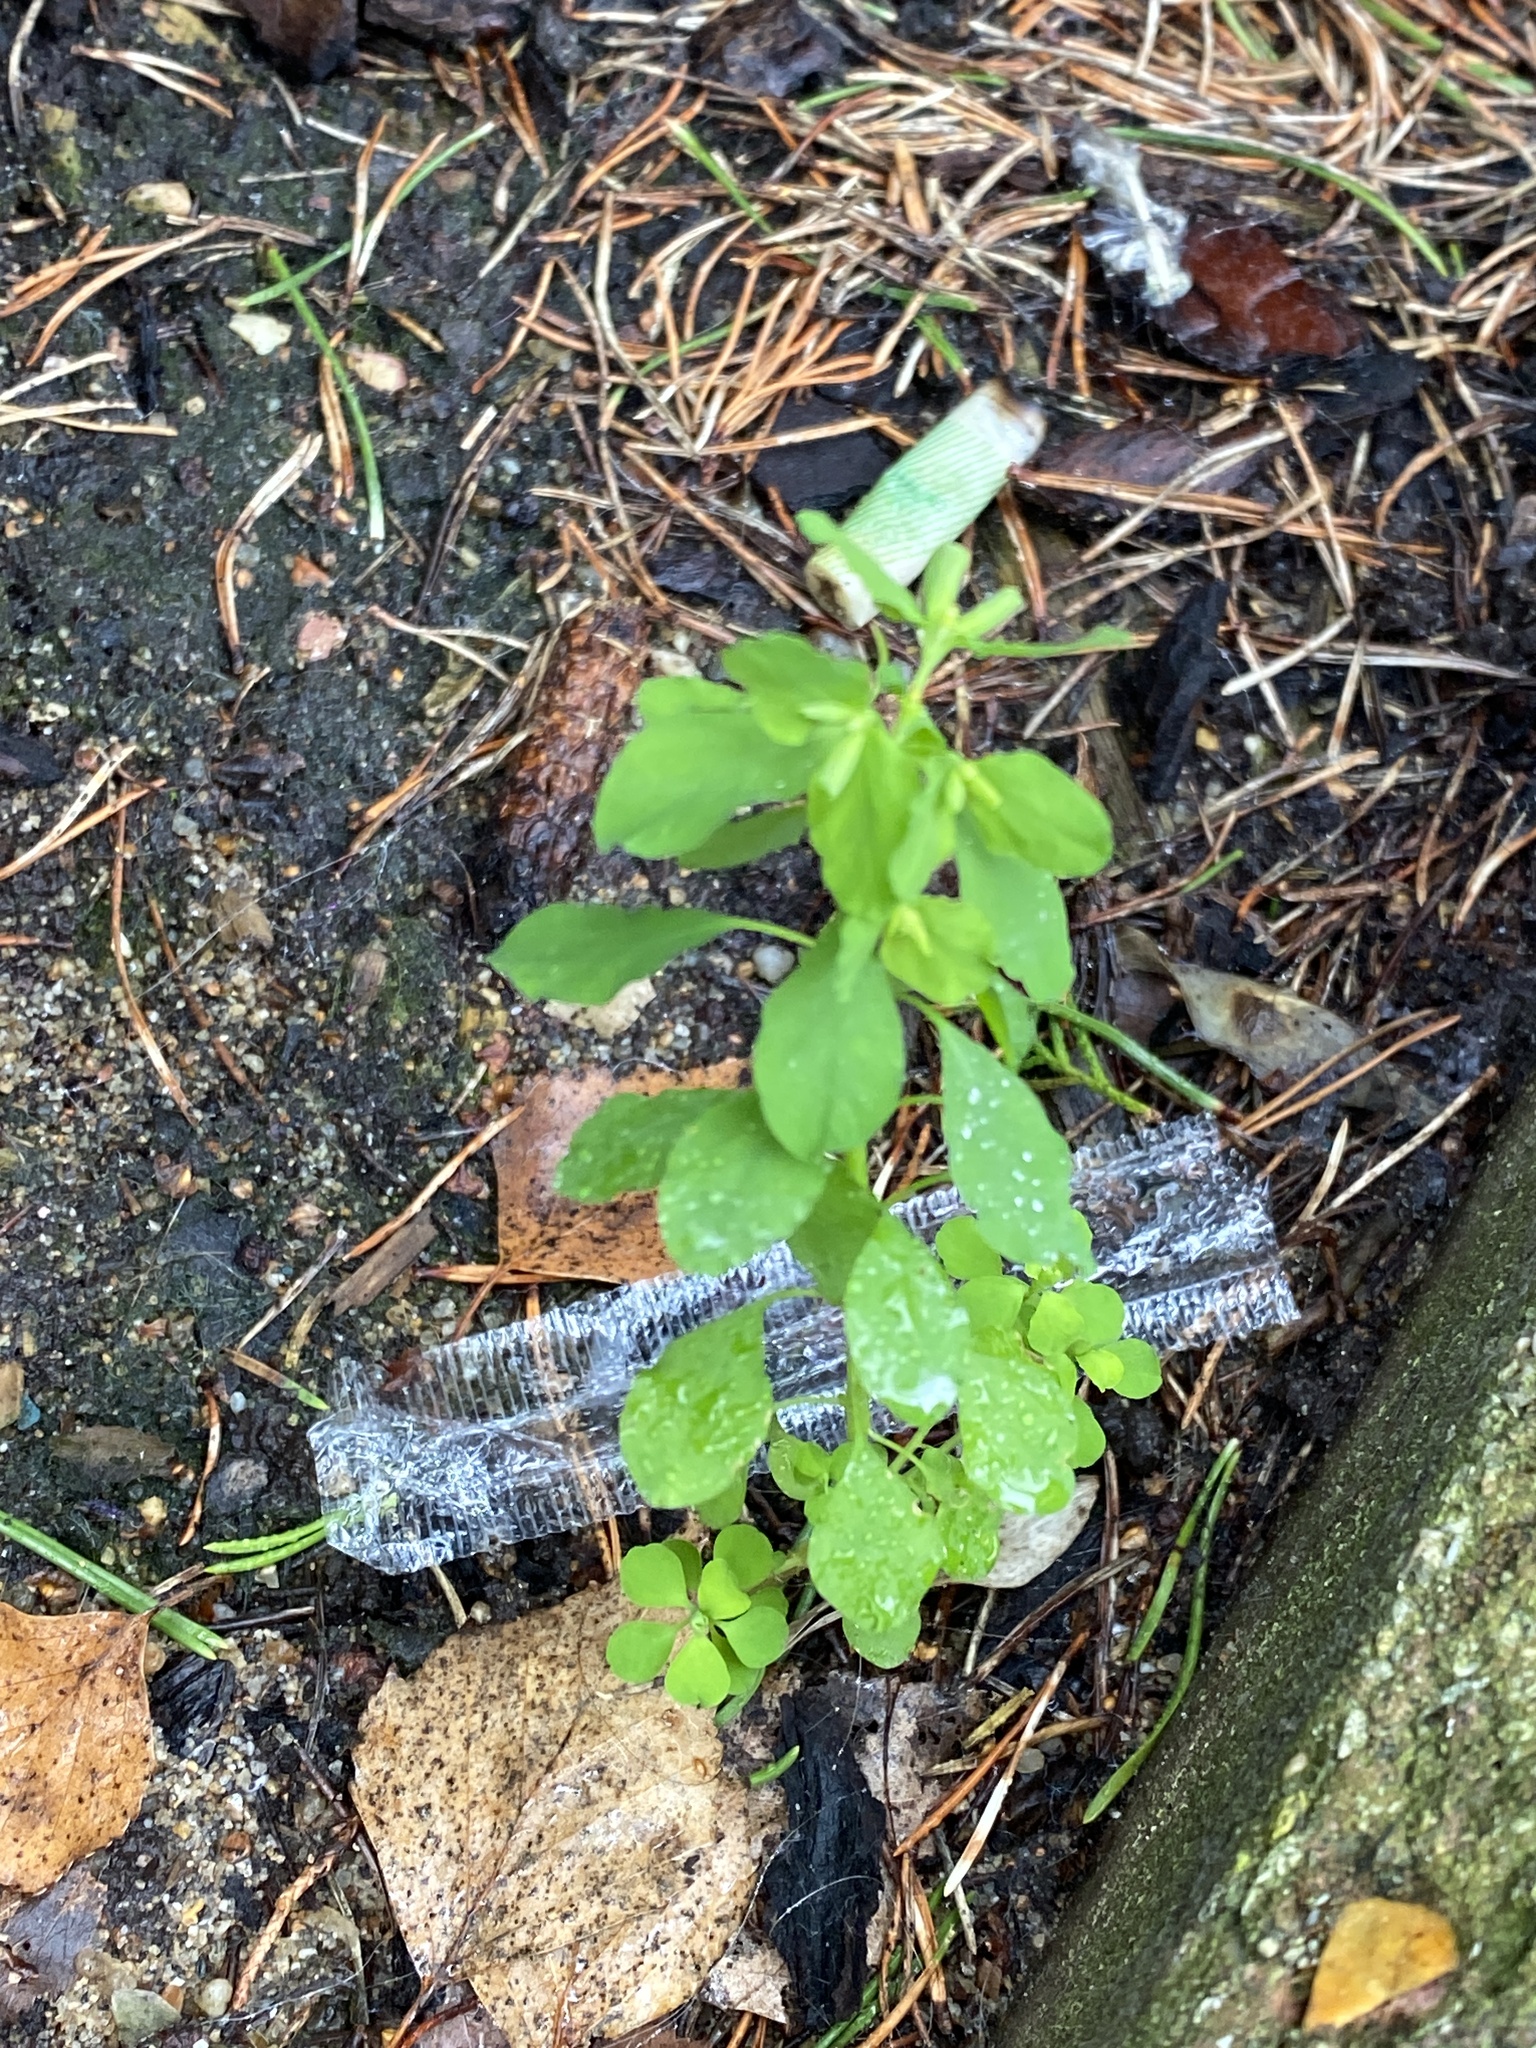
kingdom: Plantae
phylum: Tracheophyta
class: Magnoliopsida
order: Malpighiales
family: Euphorbiaceae
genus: Euphorbia
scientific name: Euphorbia peplus
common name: Petty spurge
